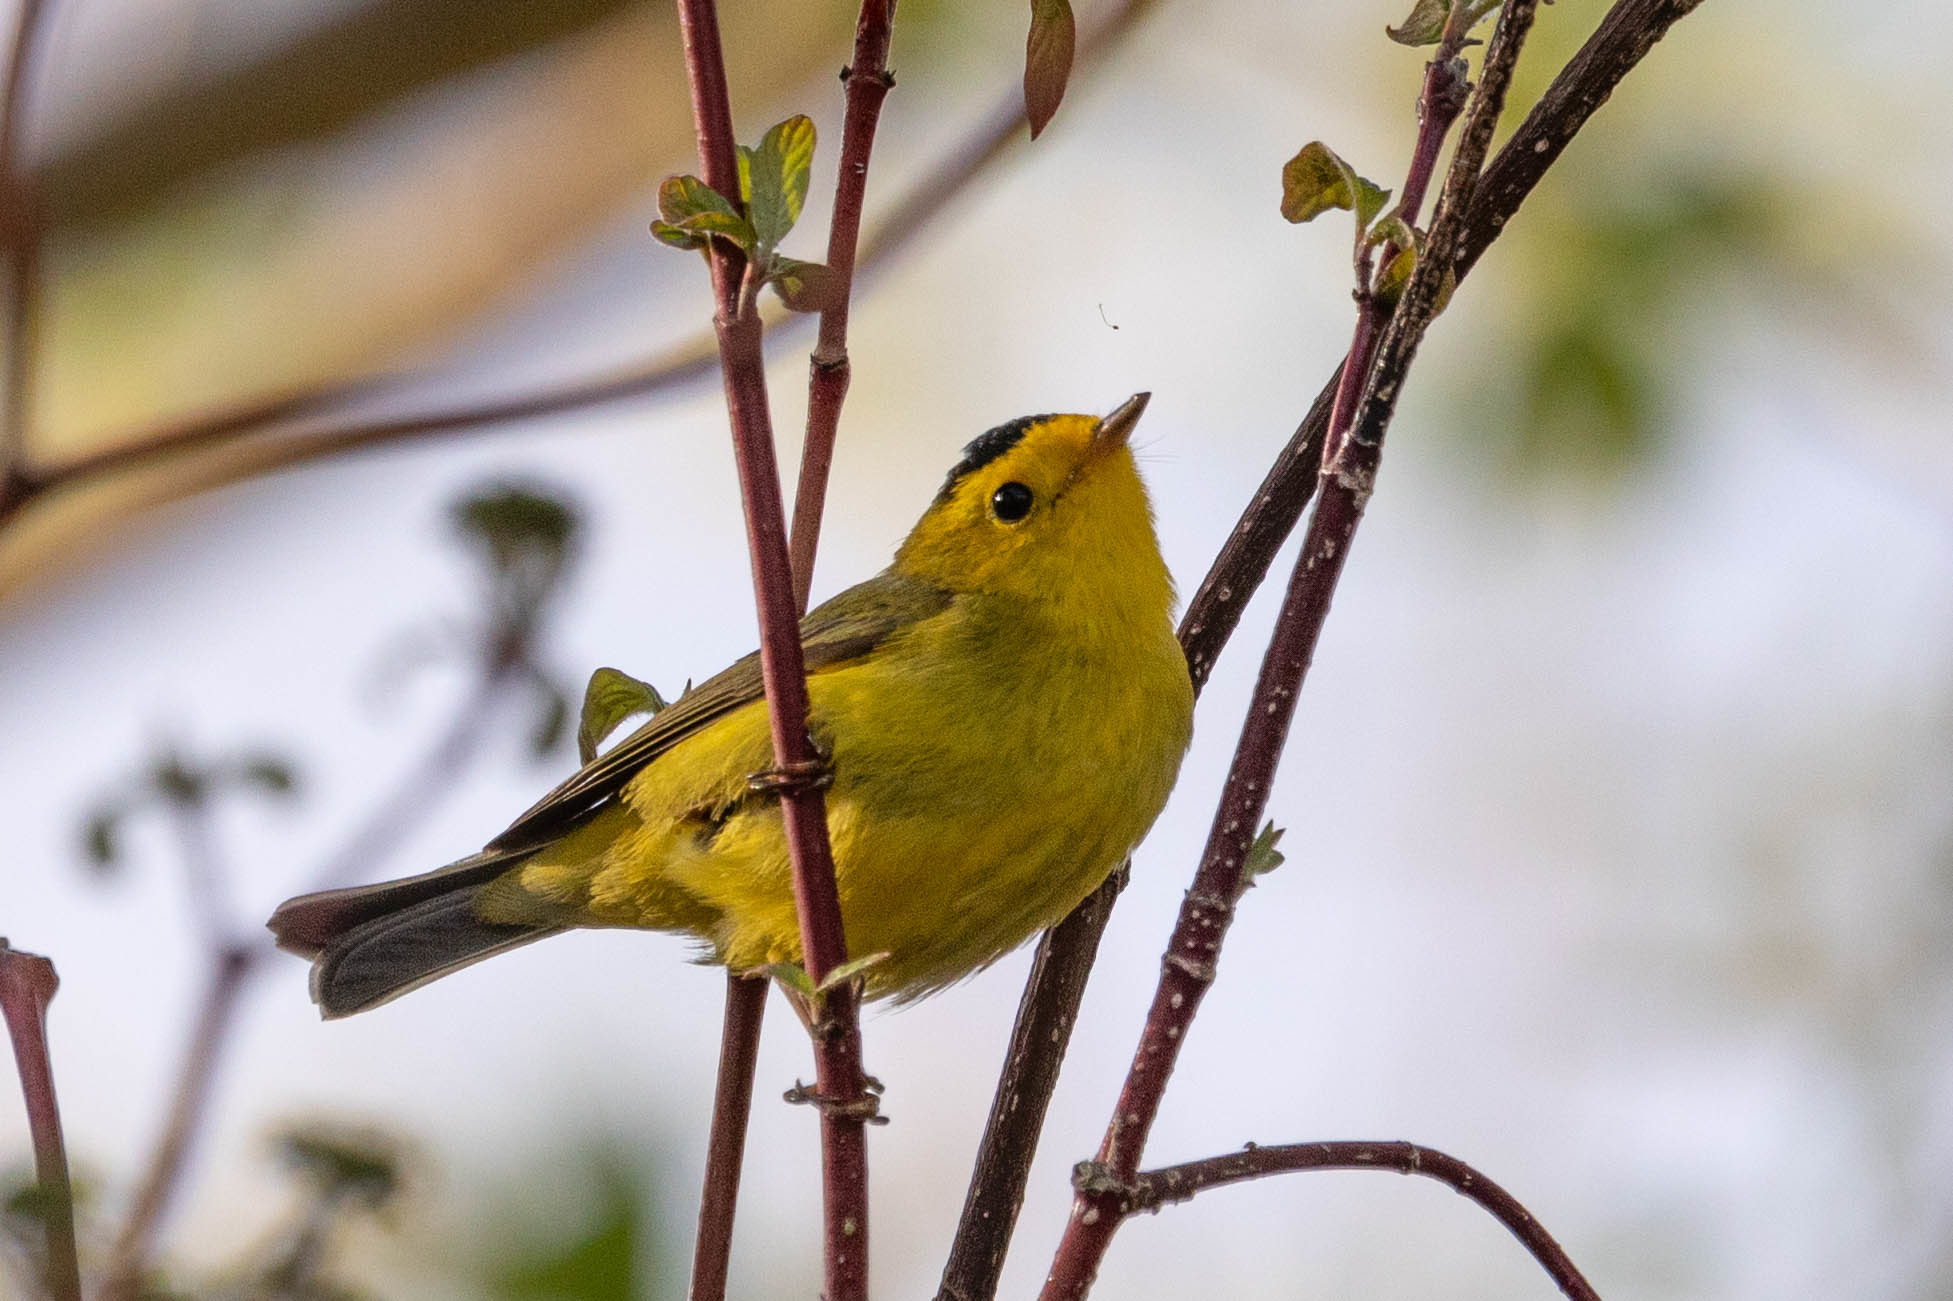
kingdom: Animalia
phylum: Chordata
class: Aves
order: Passeriformes
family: Parulidae
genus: Cardellina
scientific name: Cardellina pusilla
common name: Wilson's warbler
